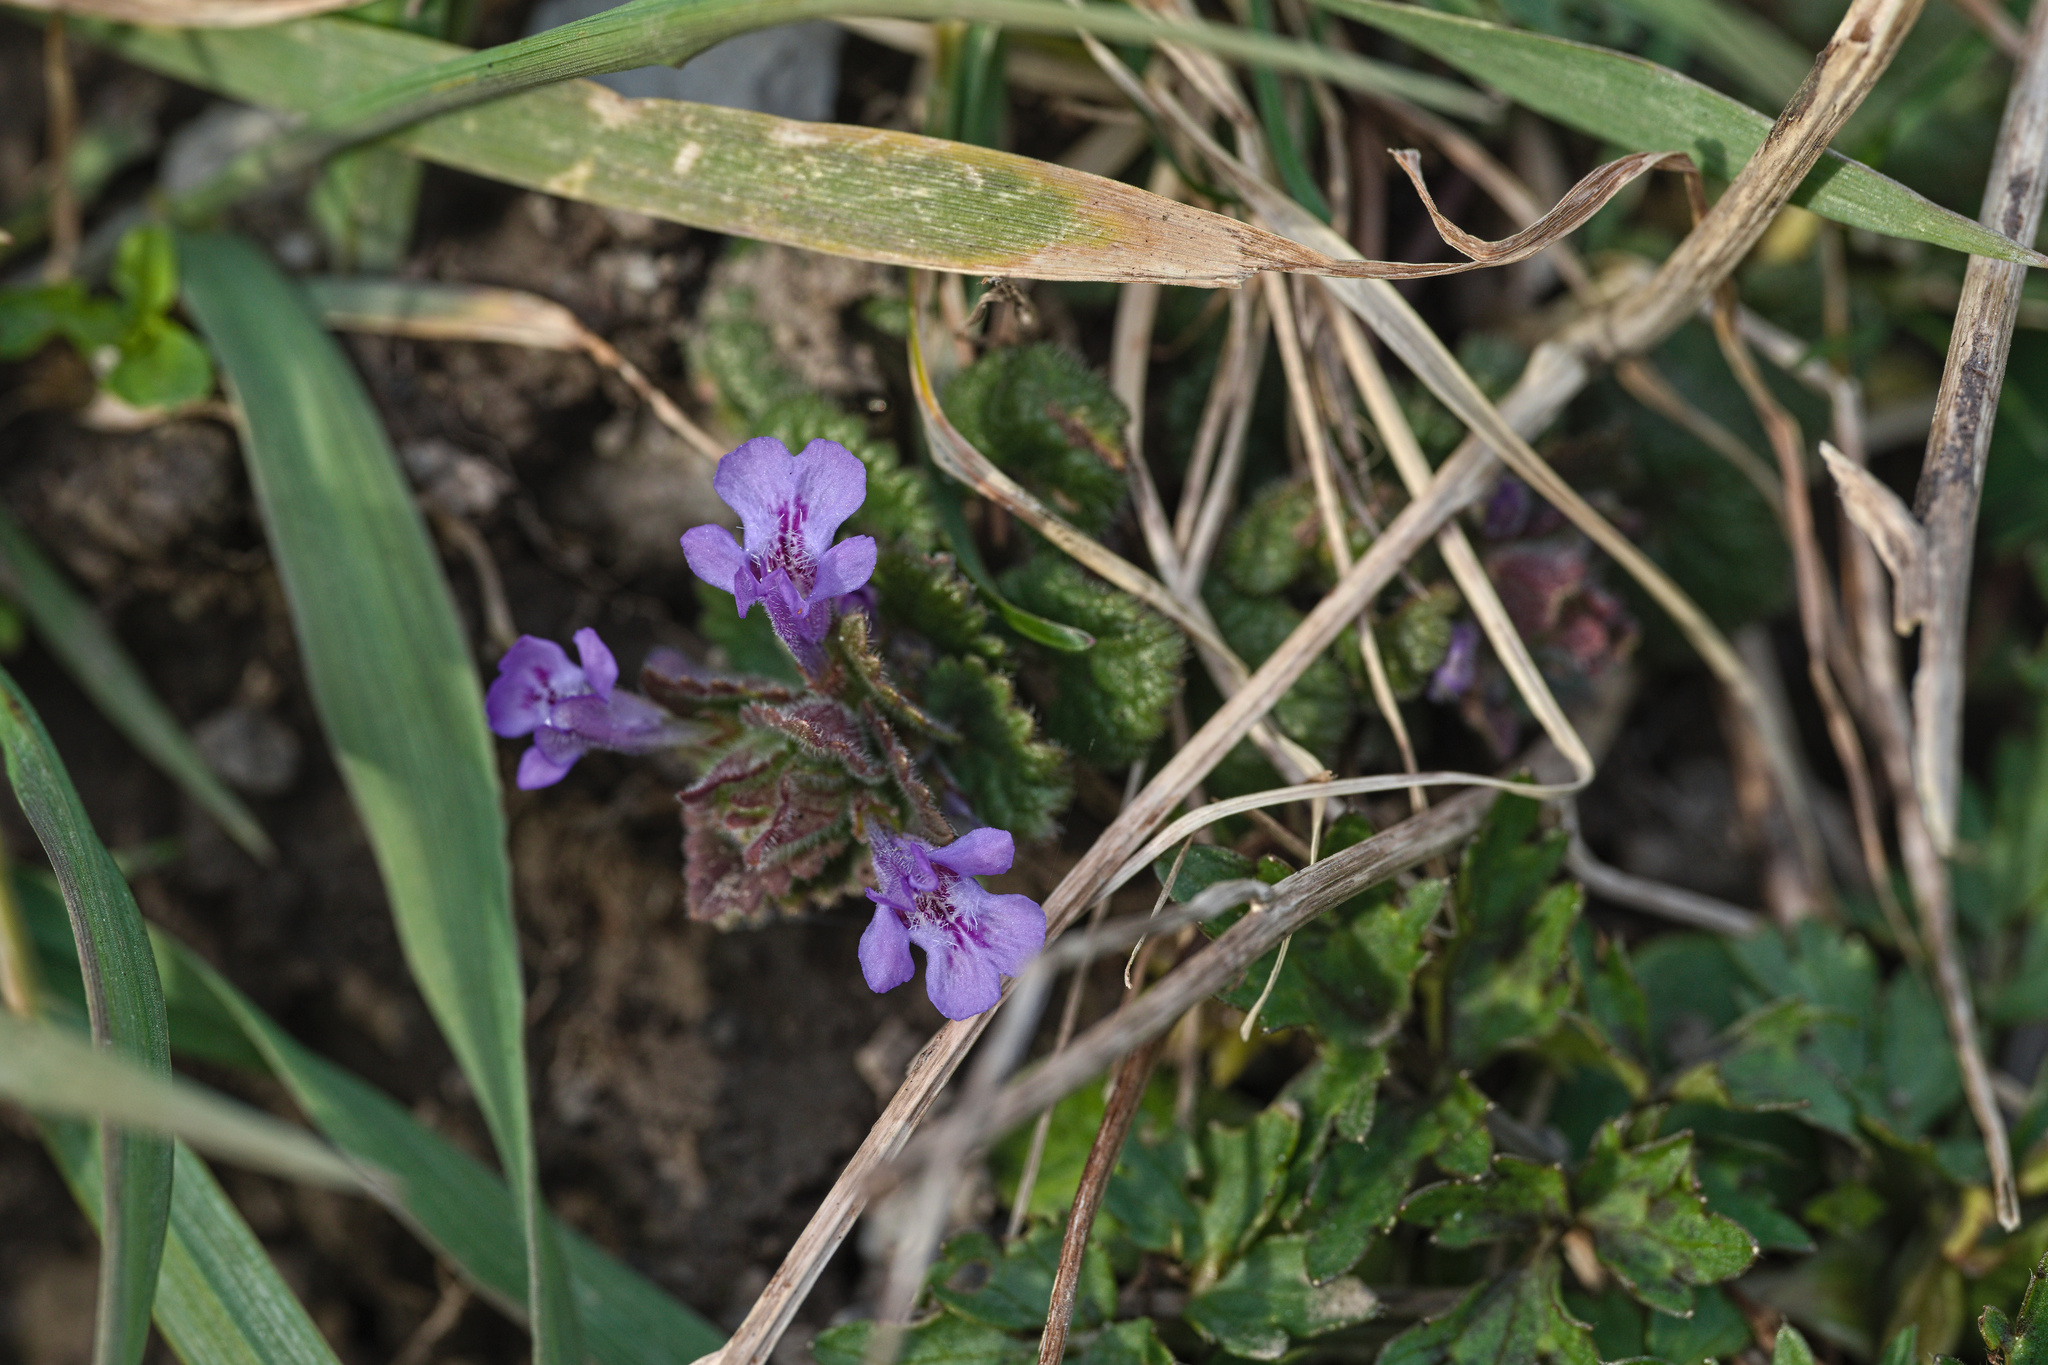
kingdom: Plantae
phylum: Tracheophyta
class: Magnoliopsida
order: Lamiales
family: Lamiaceae
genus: Glechoma
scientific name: Glechoma hederacea
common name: Ground ivy
